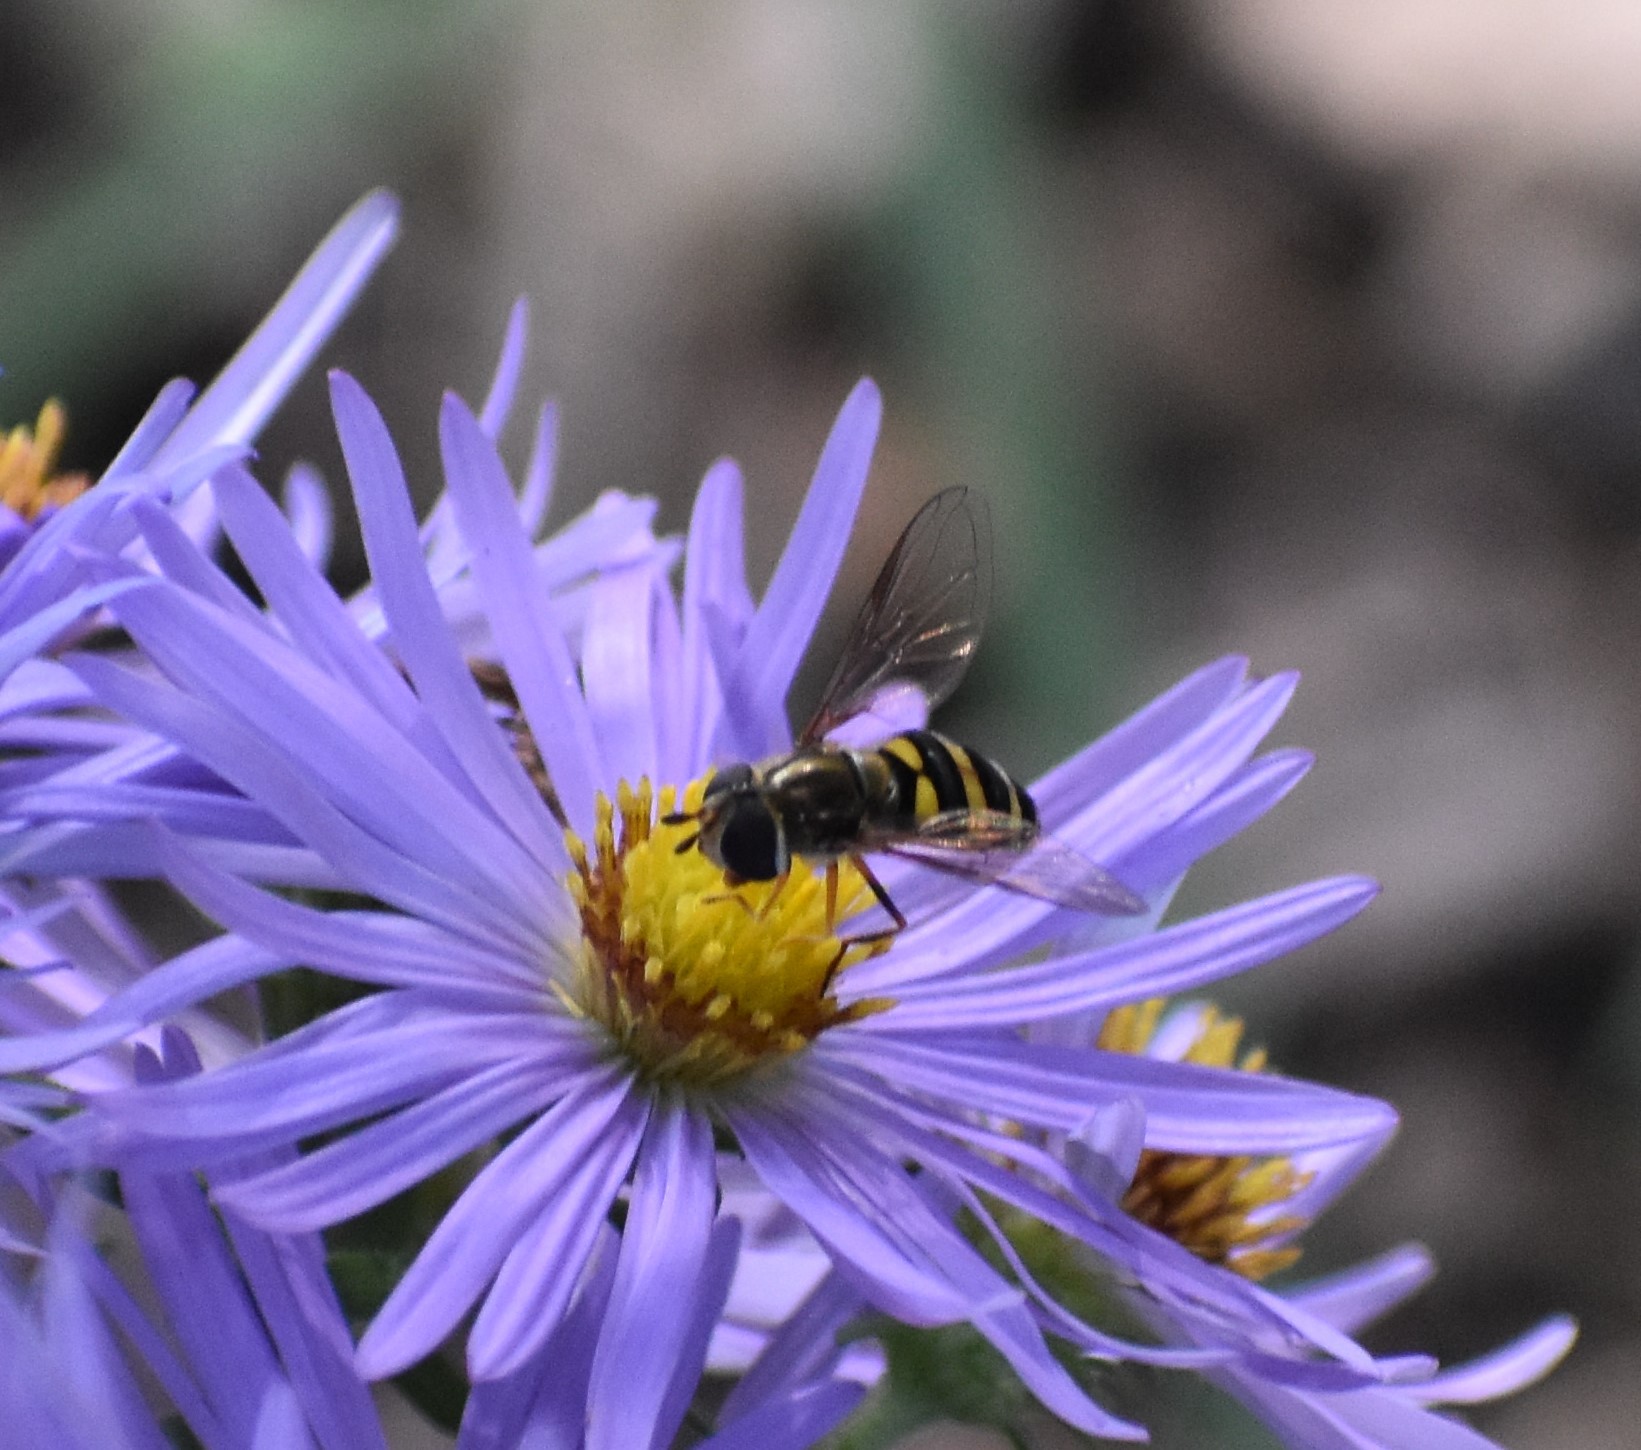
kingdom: Animalia
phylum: Arthropoda
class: Insecta
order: Diptera
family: Syrphidae
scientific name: Syrphidae
